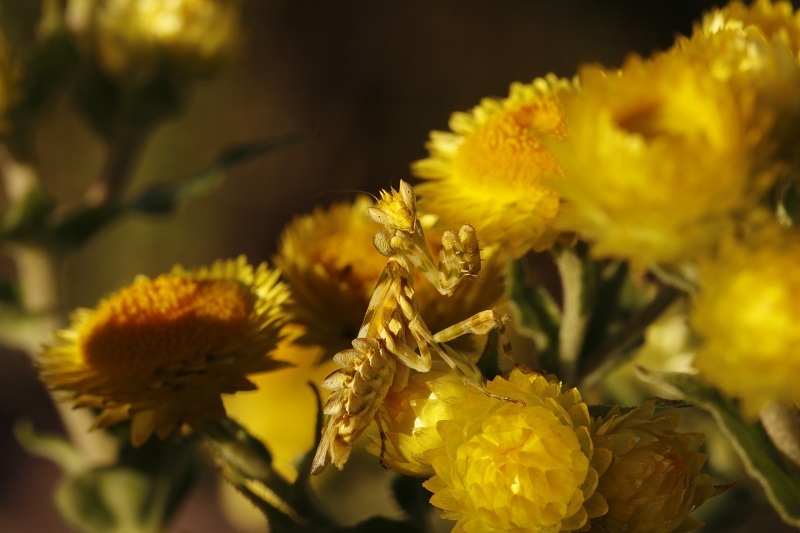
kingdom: Animalia
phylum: Arthropoda
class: Insecta
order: Mantodea
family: Galinthiadidae
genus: Harpagomantis
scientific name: Harpagomantis tricolor
